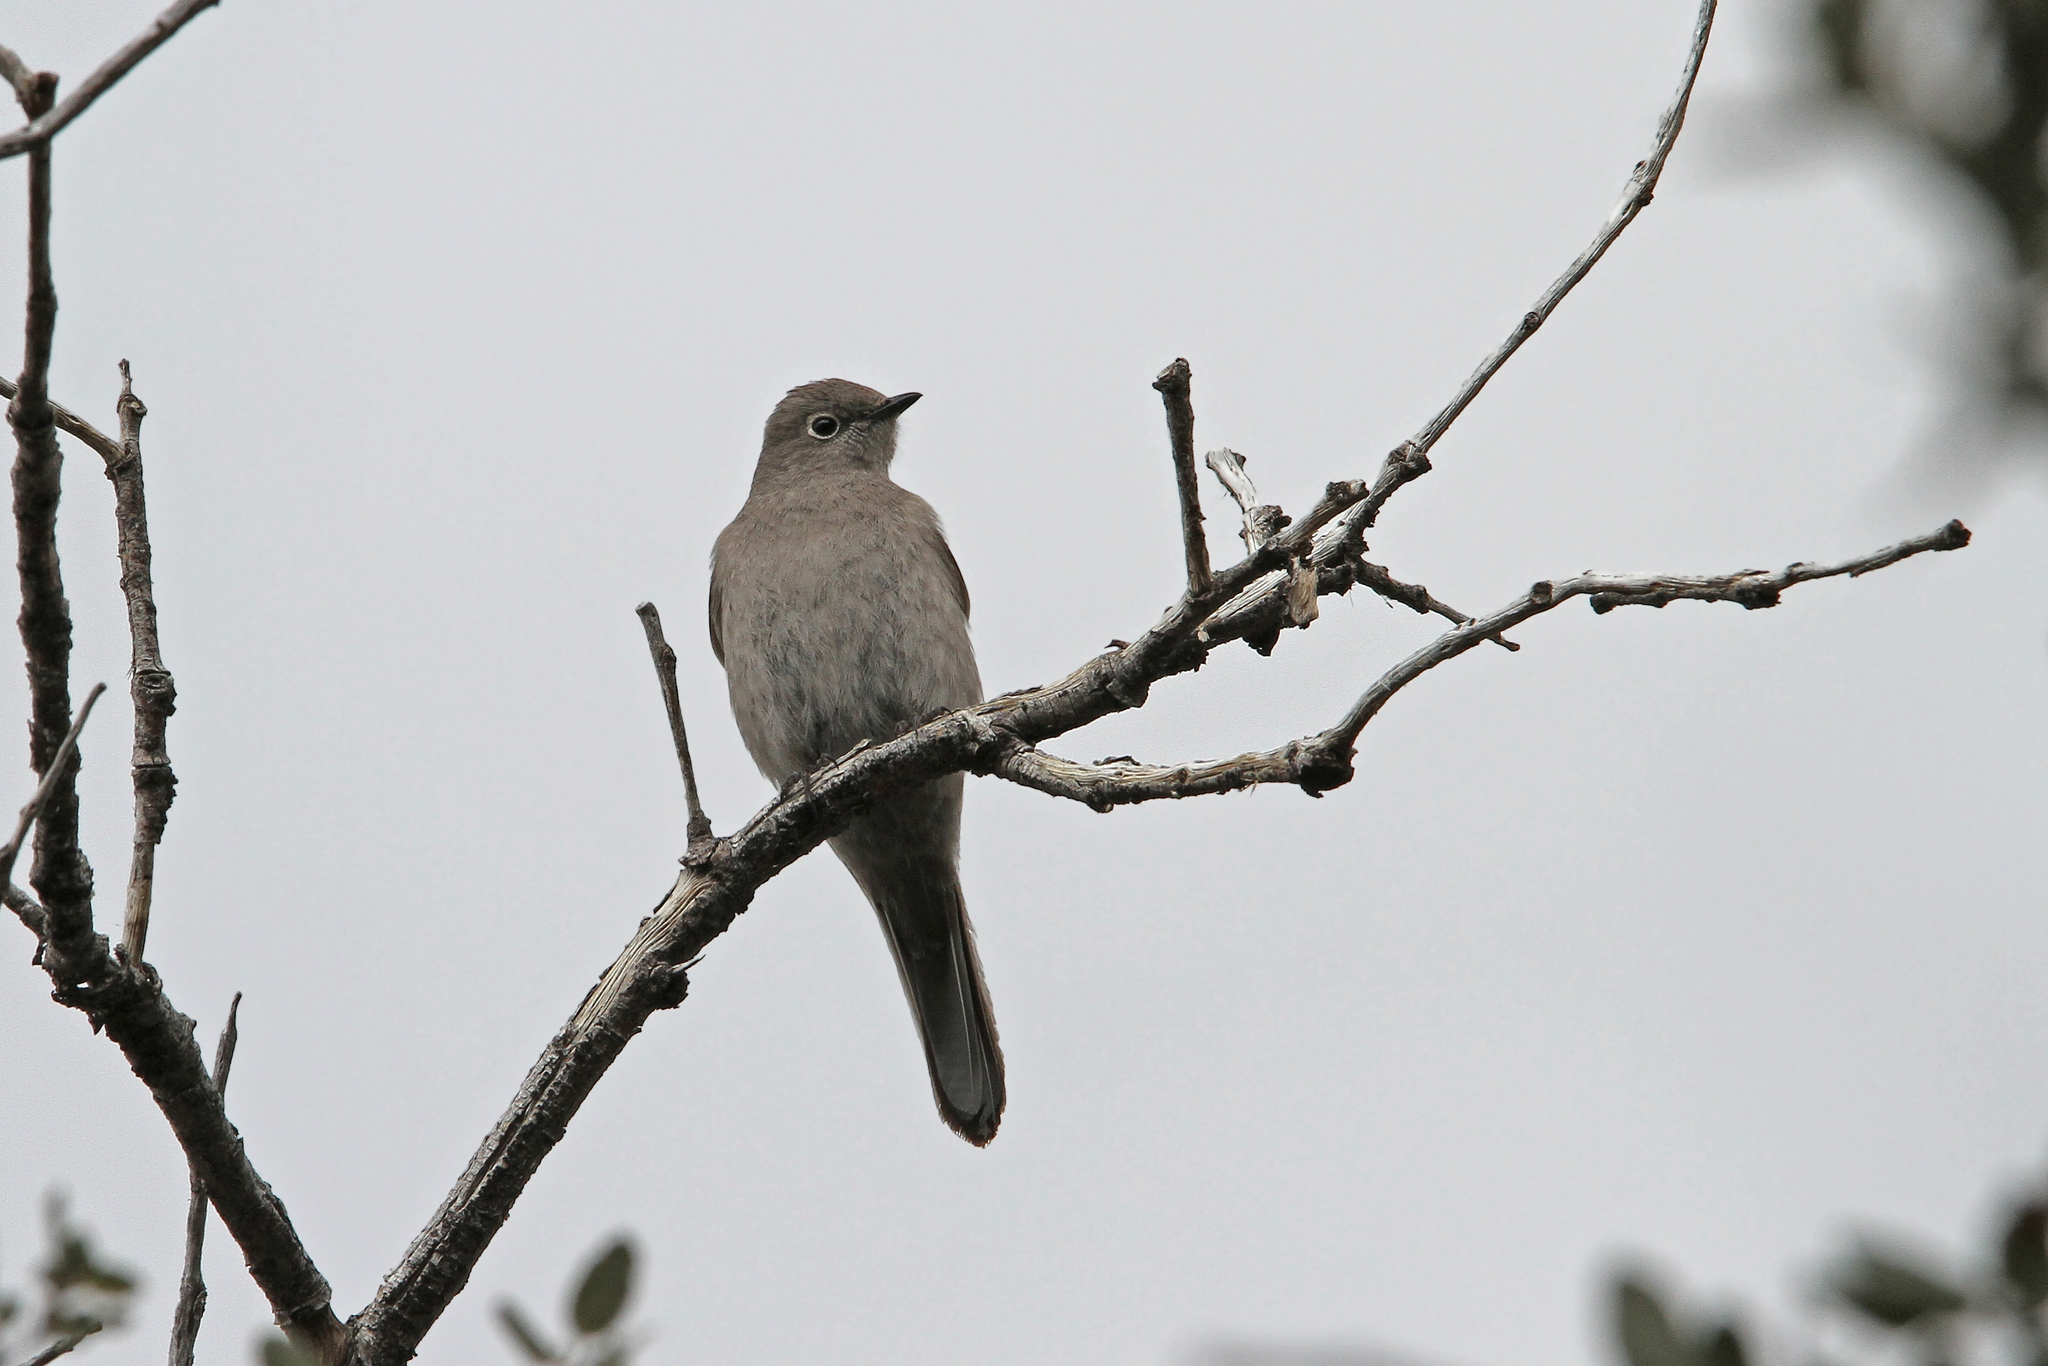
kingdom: Animalia
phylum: Chordata
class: Aves
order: Passeriformes
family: Turdidae
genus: Myadestes
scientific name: Myadestes townsendi
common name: Townsend's solitaire
